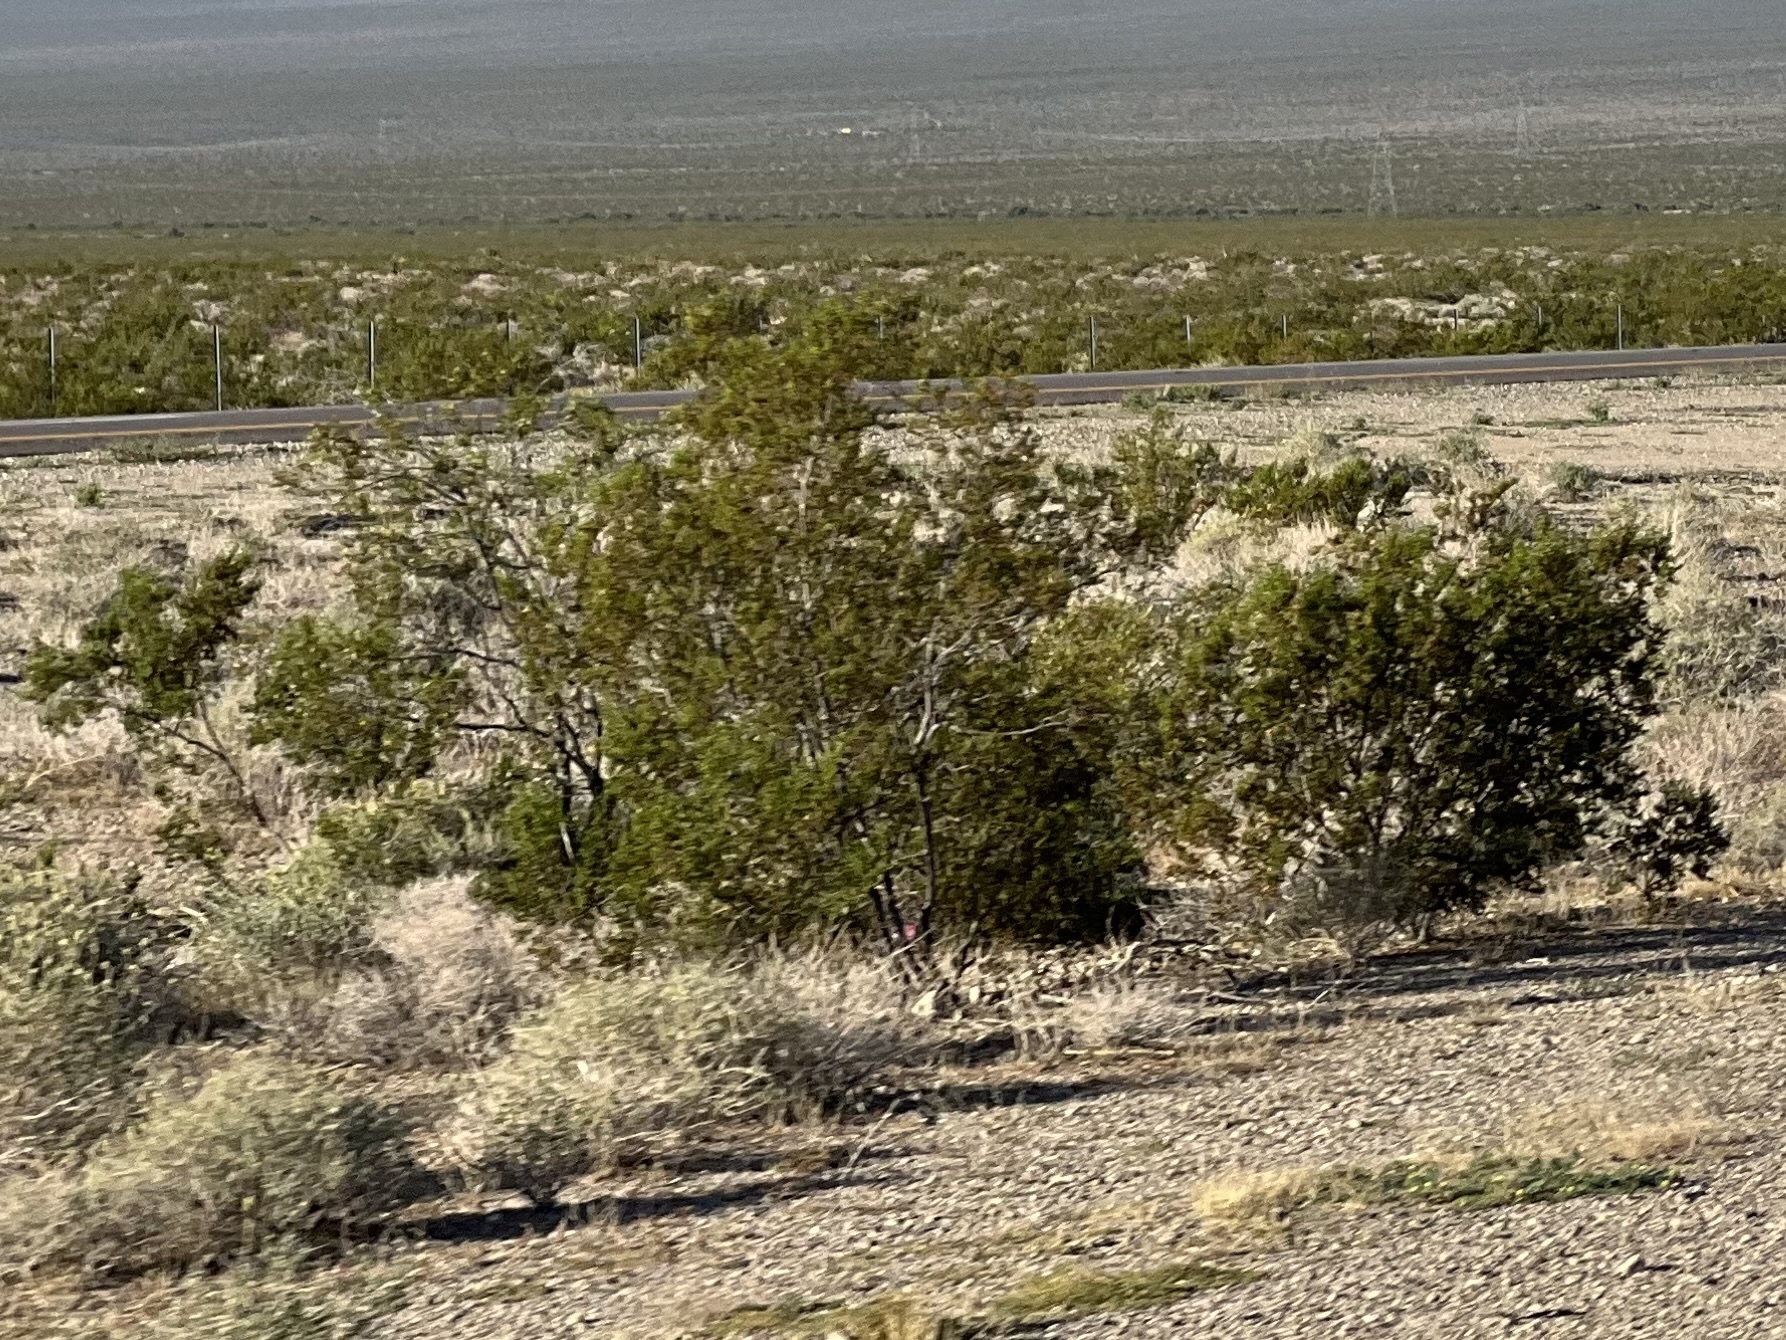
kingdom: Plantae
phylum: Tracheophyta
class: Magnoliopsida
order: Zygophyllales
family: Zygophyllaceae
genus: Larrea
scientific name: Larrea tridentata
